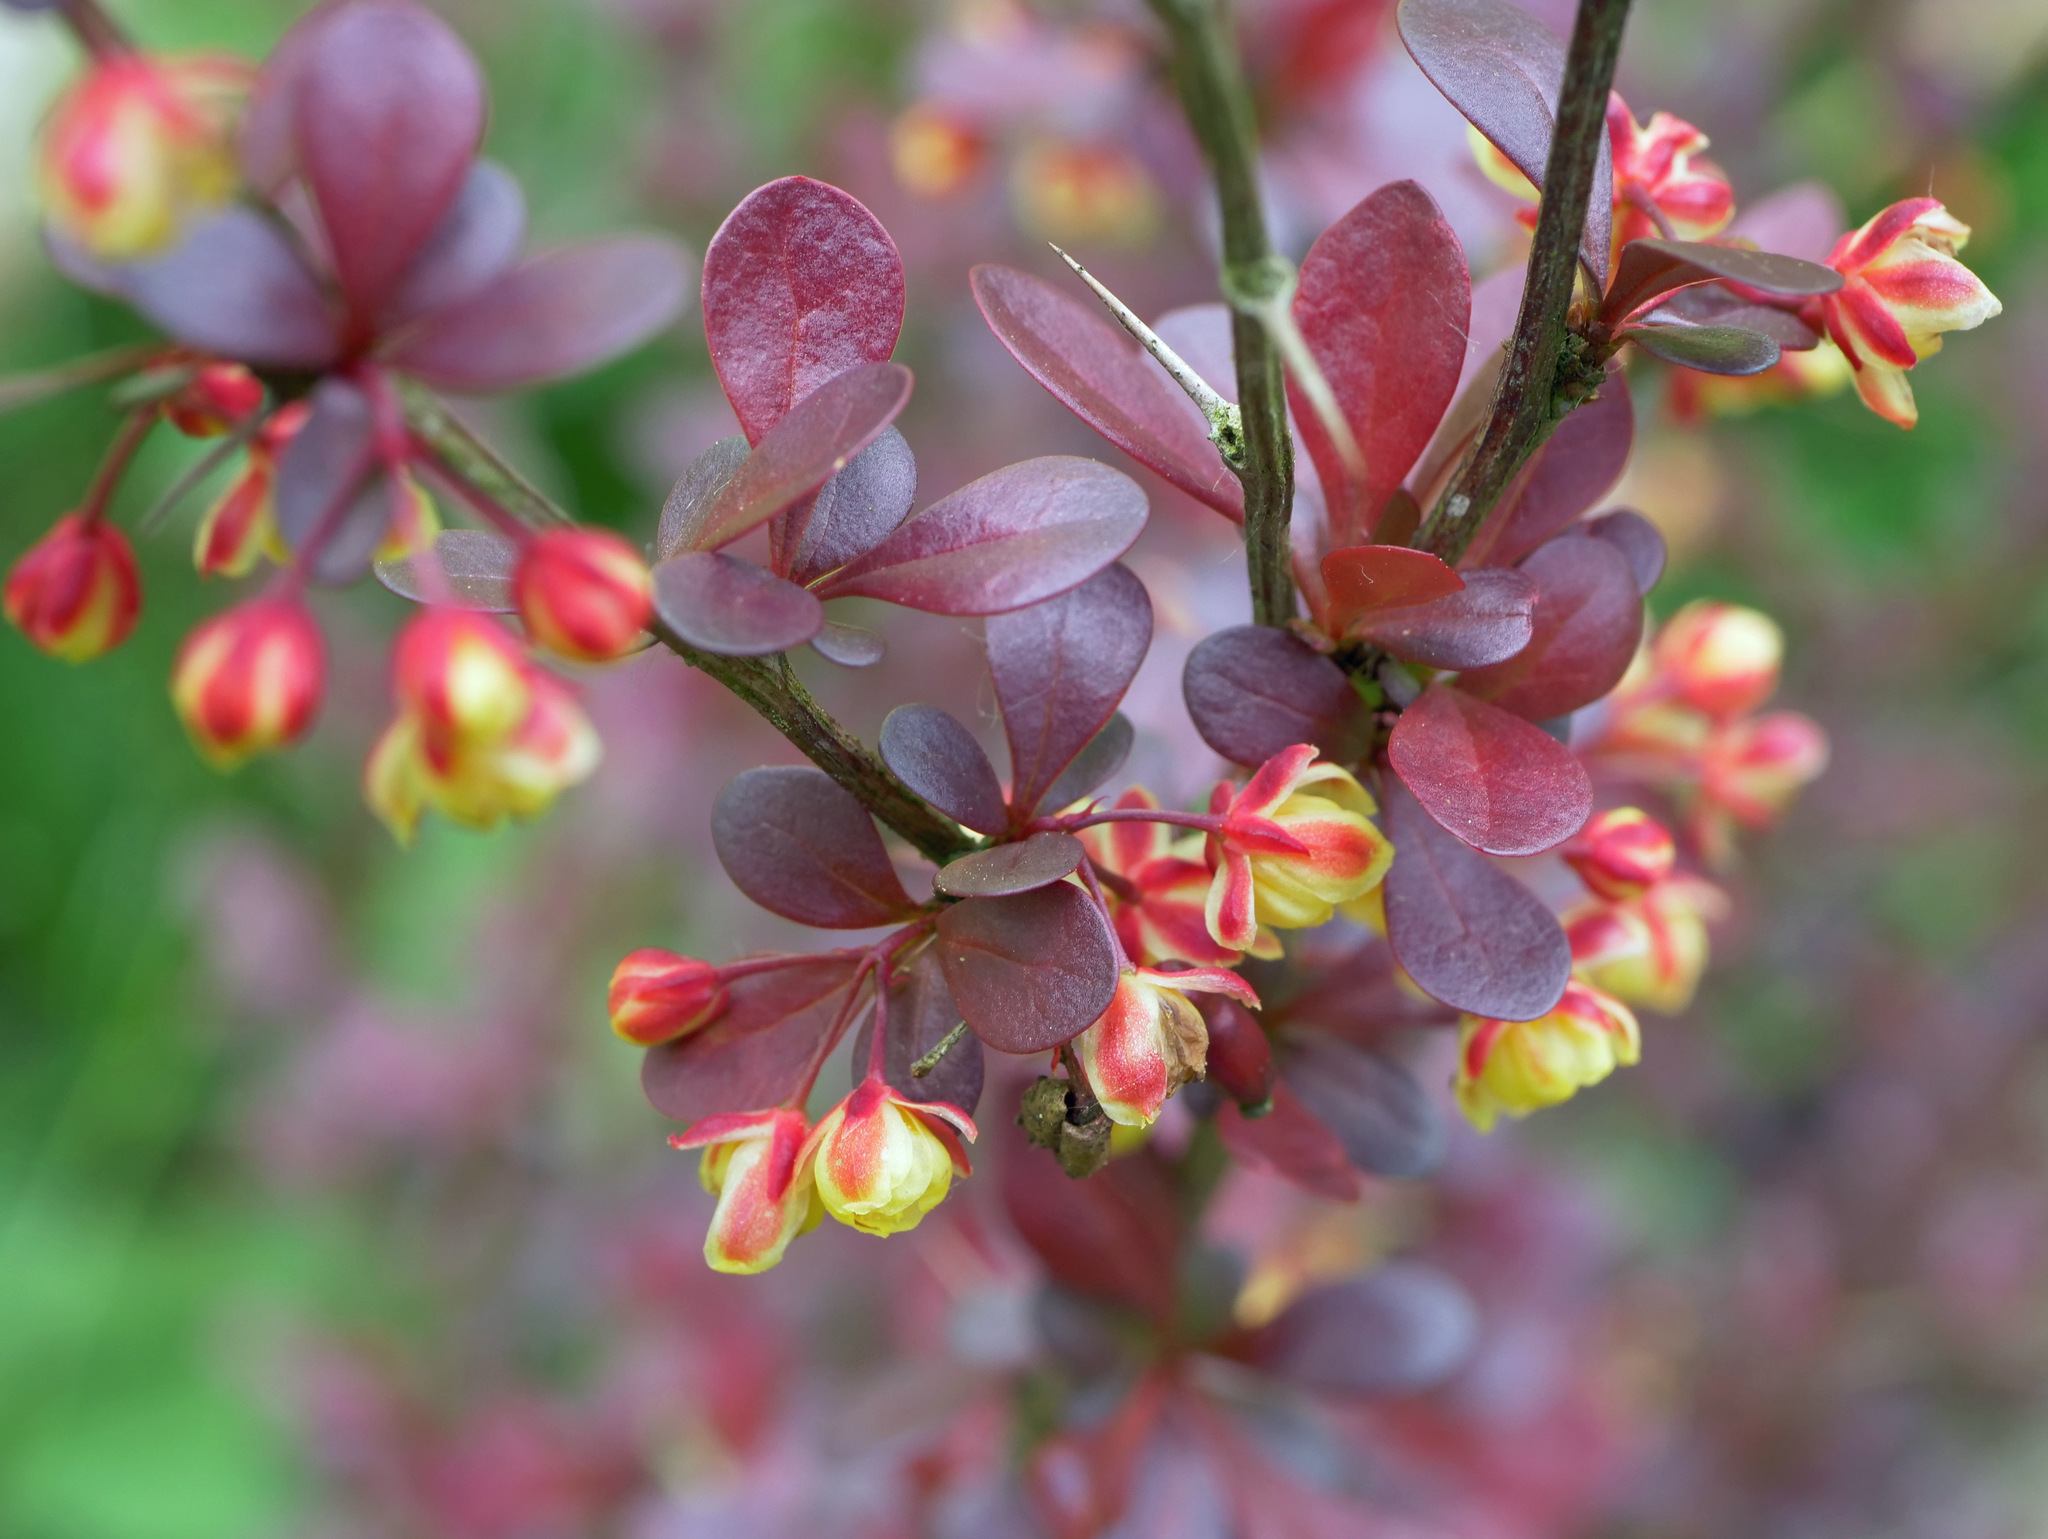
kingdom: Plantae
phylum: Tracheophyta
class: Magnoliopsida
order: Ranunculales
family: Berberidaceae
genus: Berberis
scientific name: Berberis thunbergii
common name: Japanese barberry
